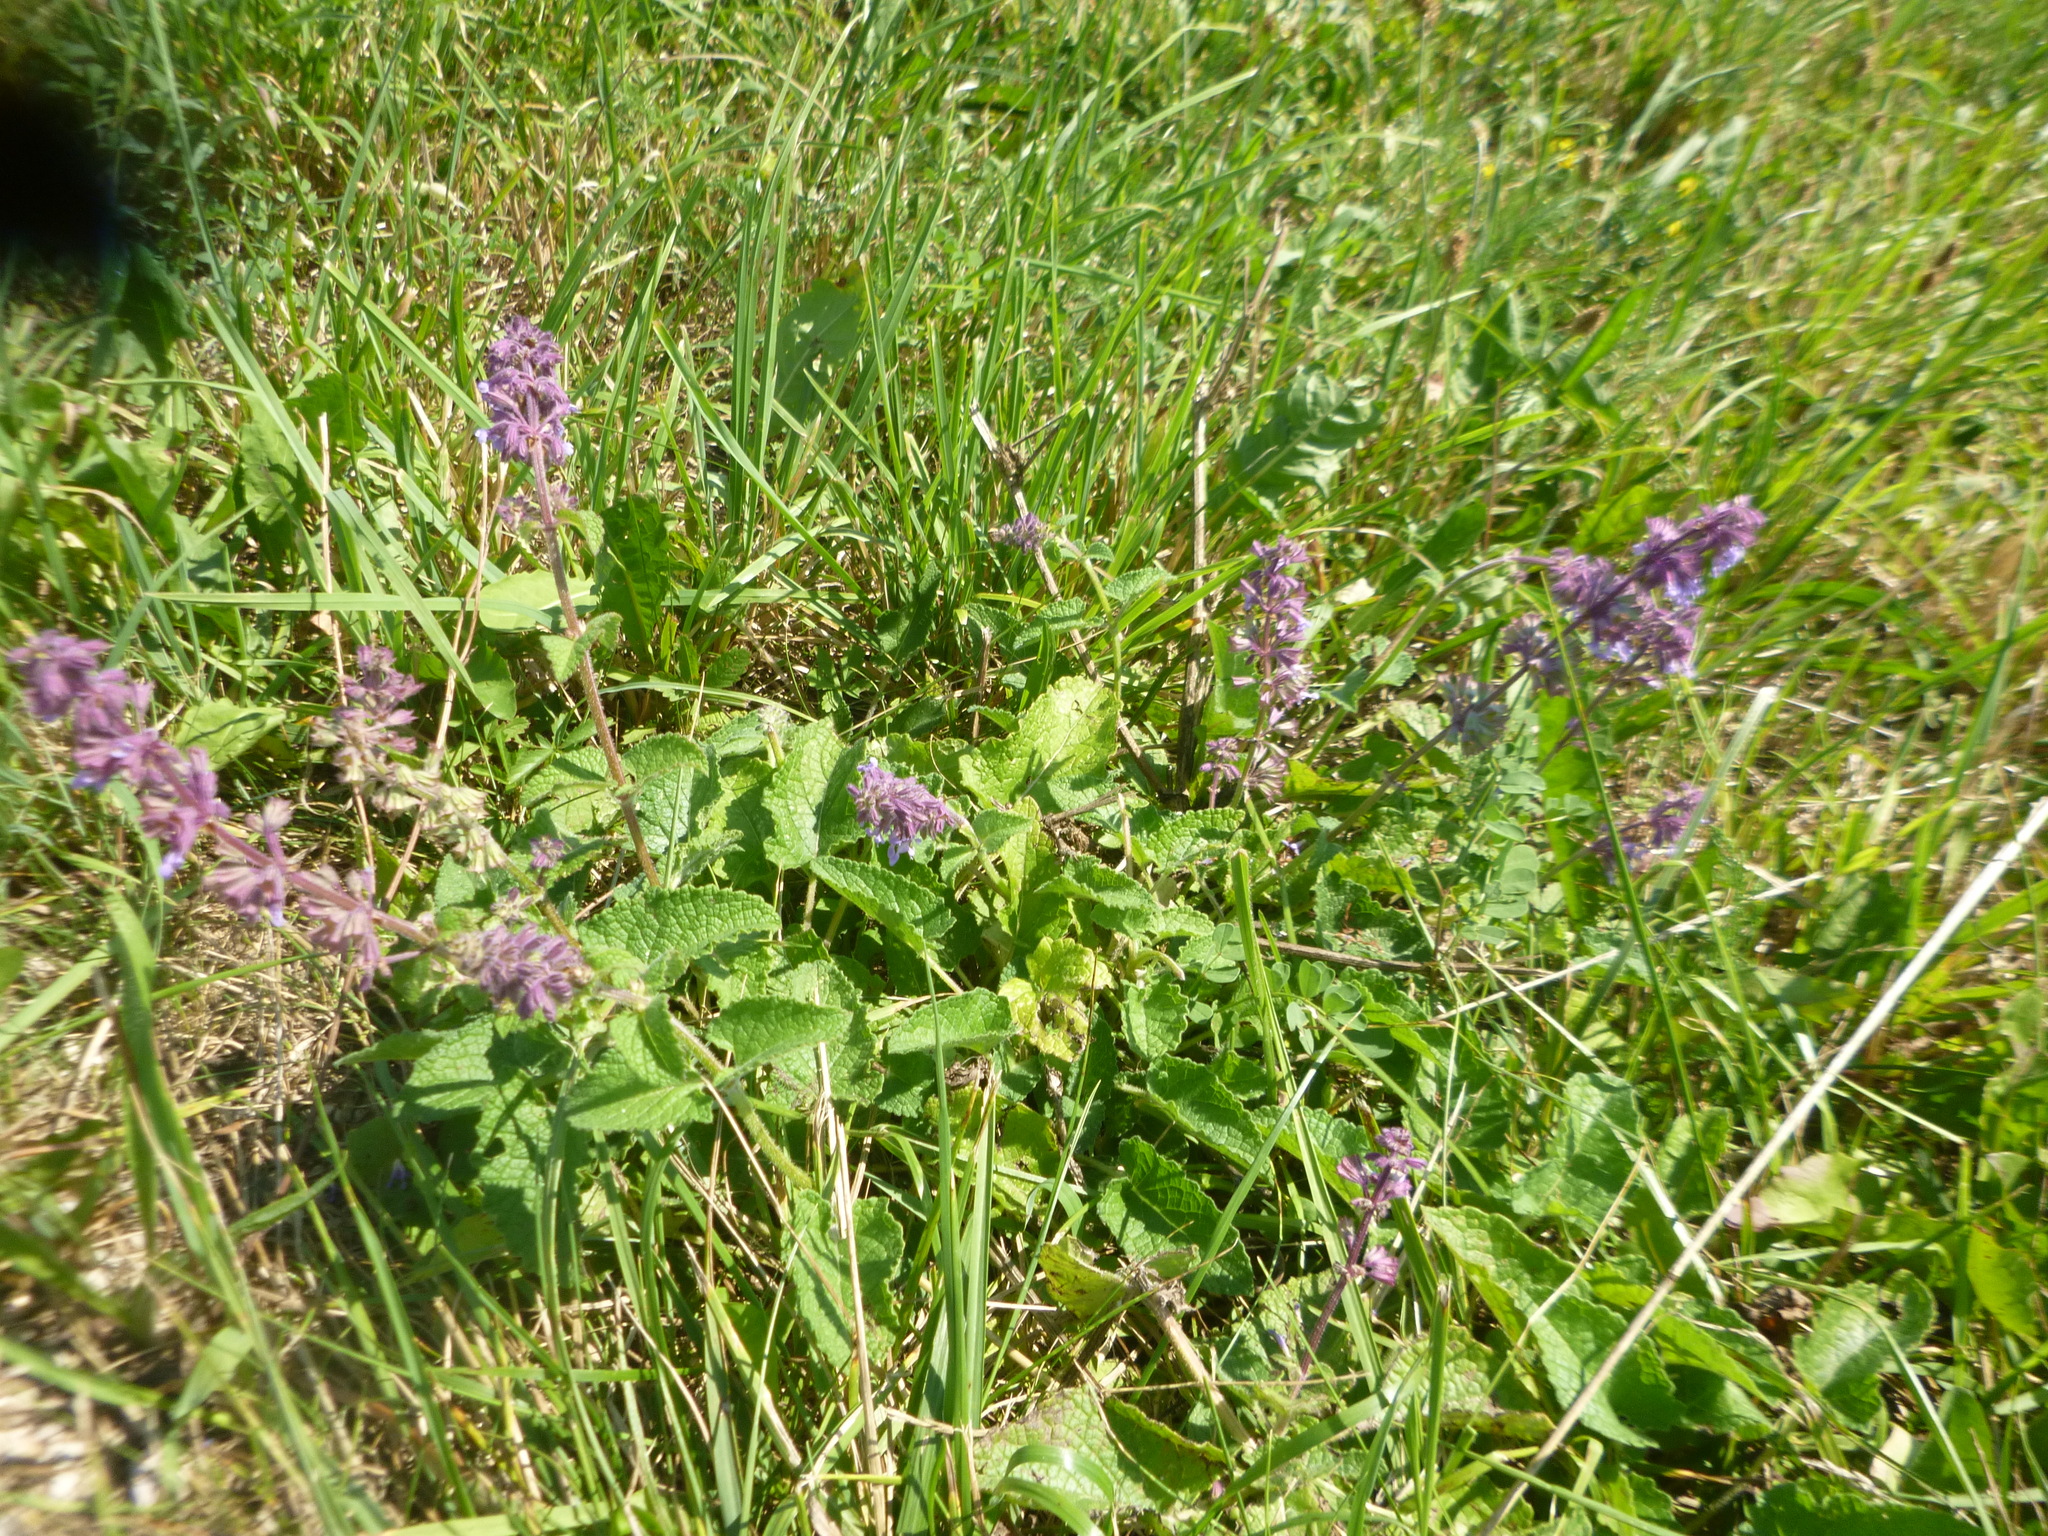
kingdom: Plantae
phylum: Tracheophyta
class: Magnoliopsida
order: Lamiales
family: Lamiaceae
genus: Salvia
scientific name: Salvia verticillata
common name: Whorled clary
